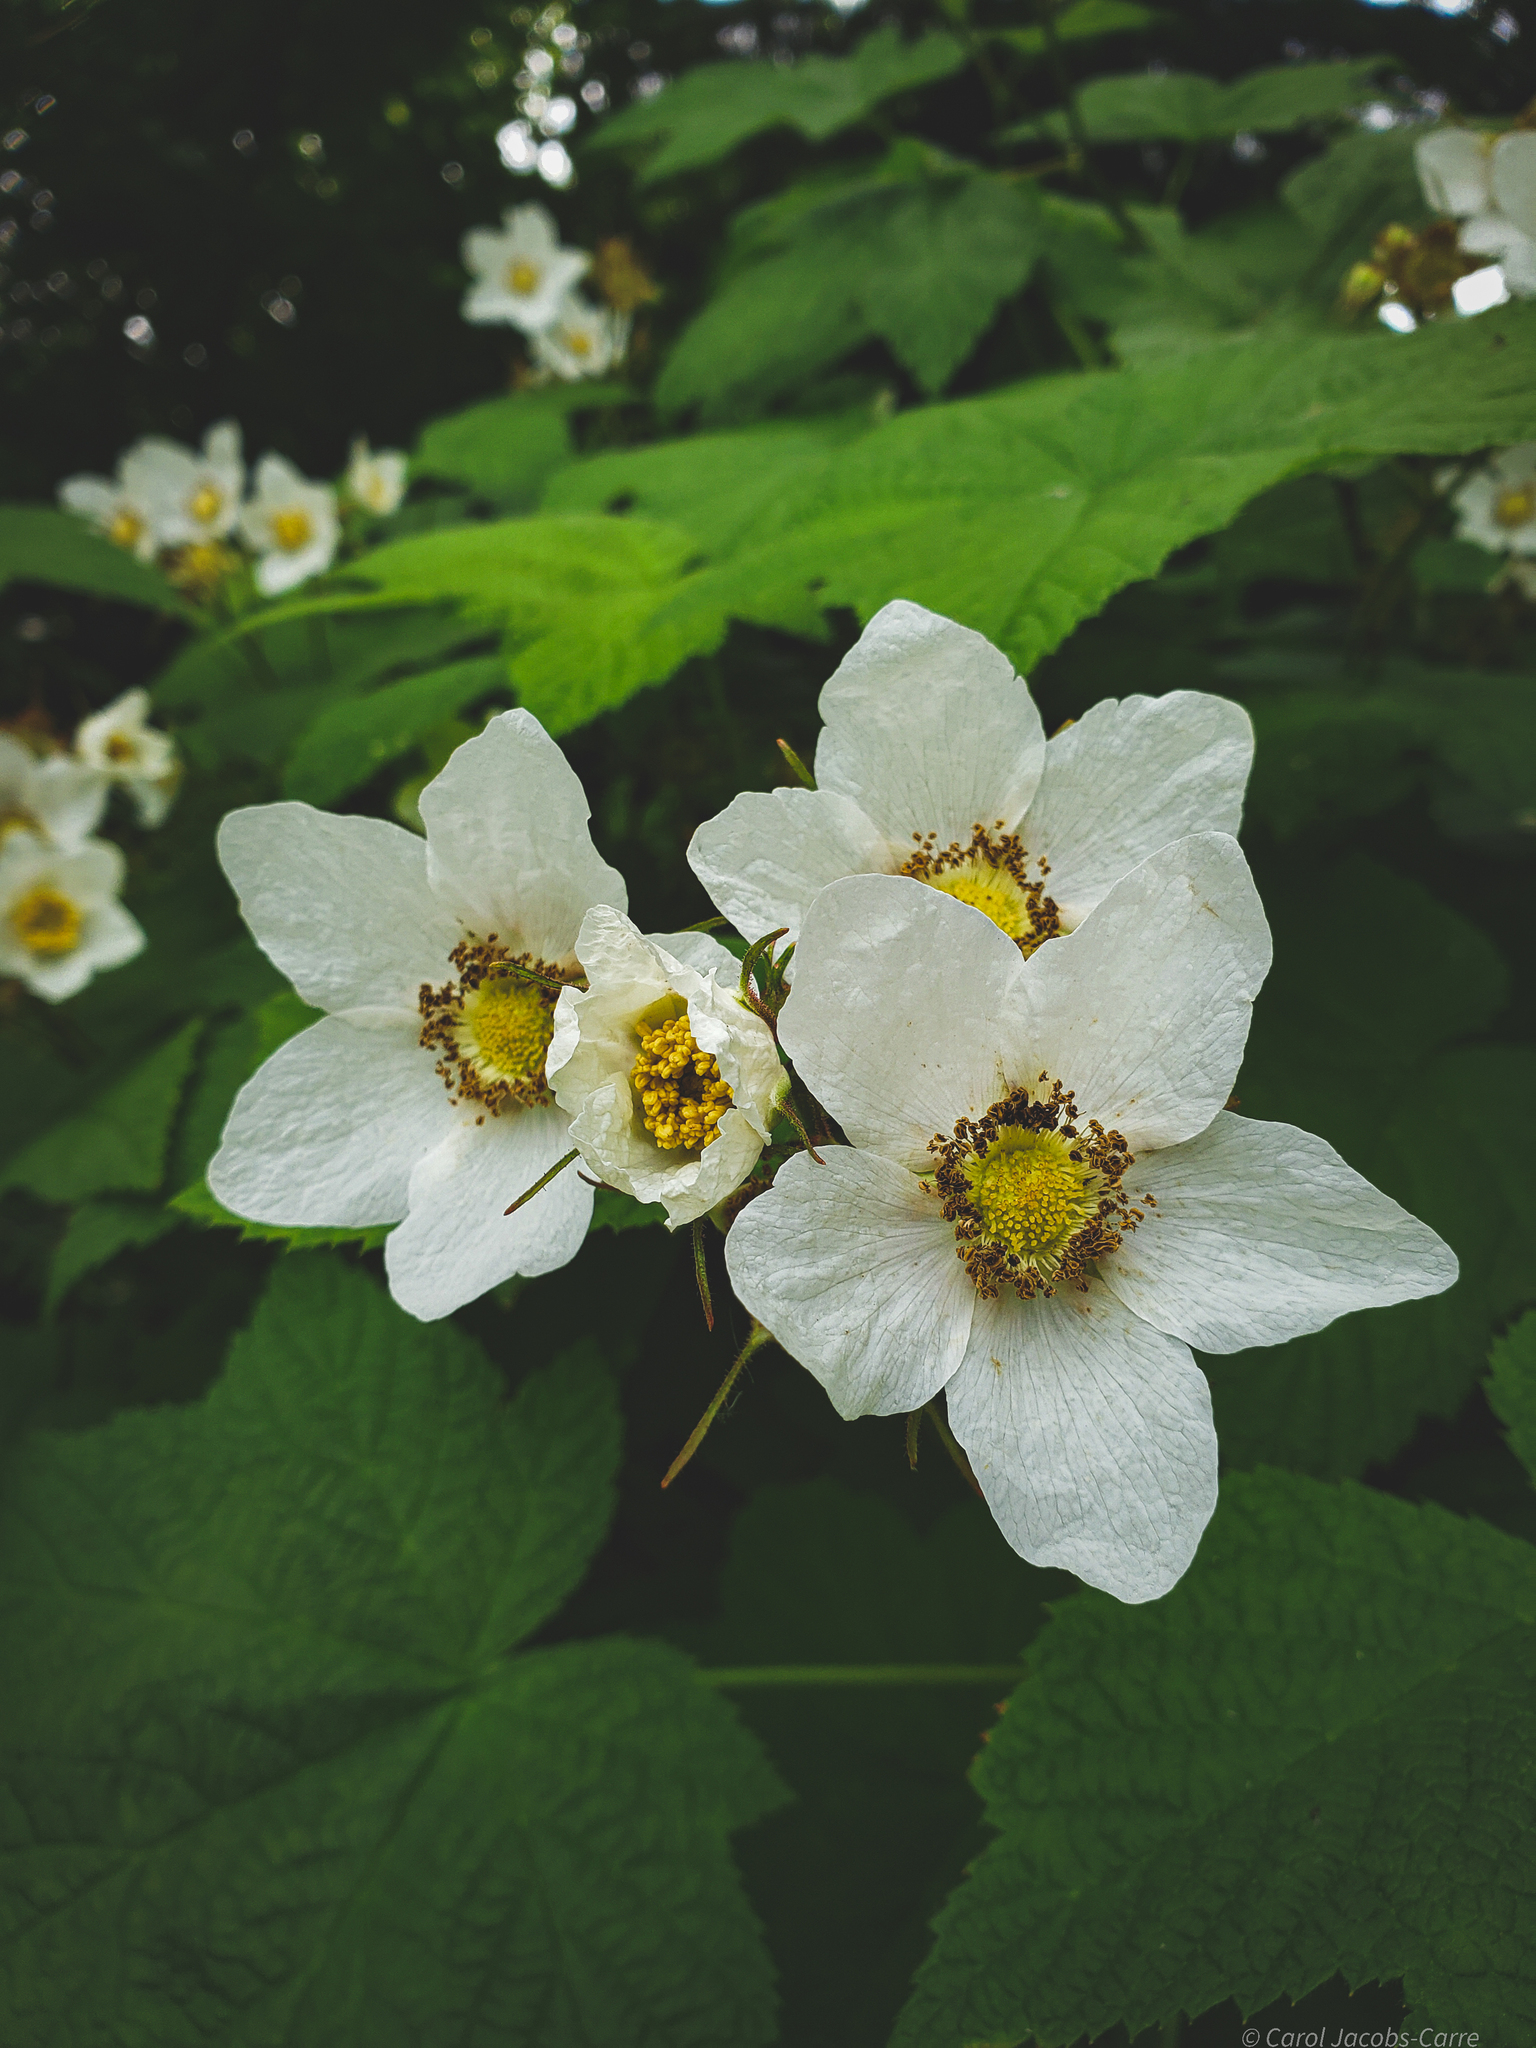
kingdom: Plantae
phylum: Tracheophyta
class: Magnoliopsida
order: Rosales
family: Rosaceae
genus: Rubus
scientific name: Rubus parviflorus
